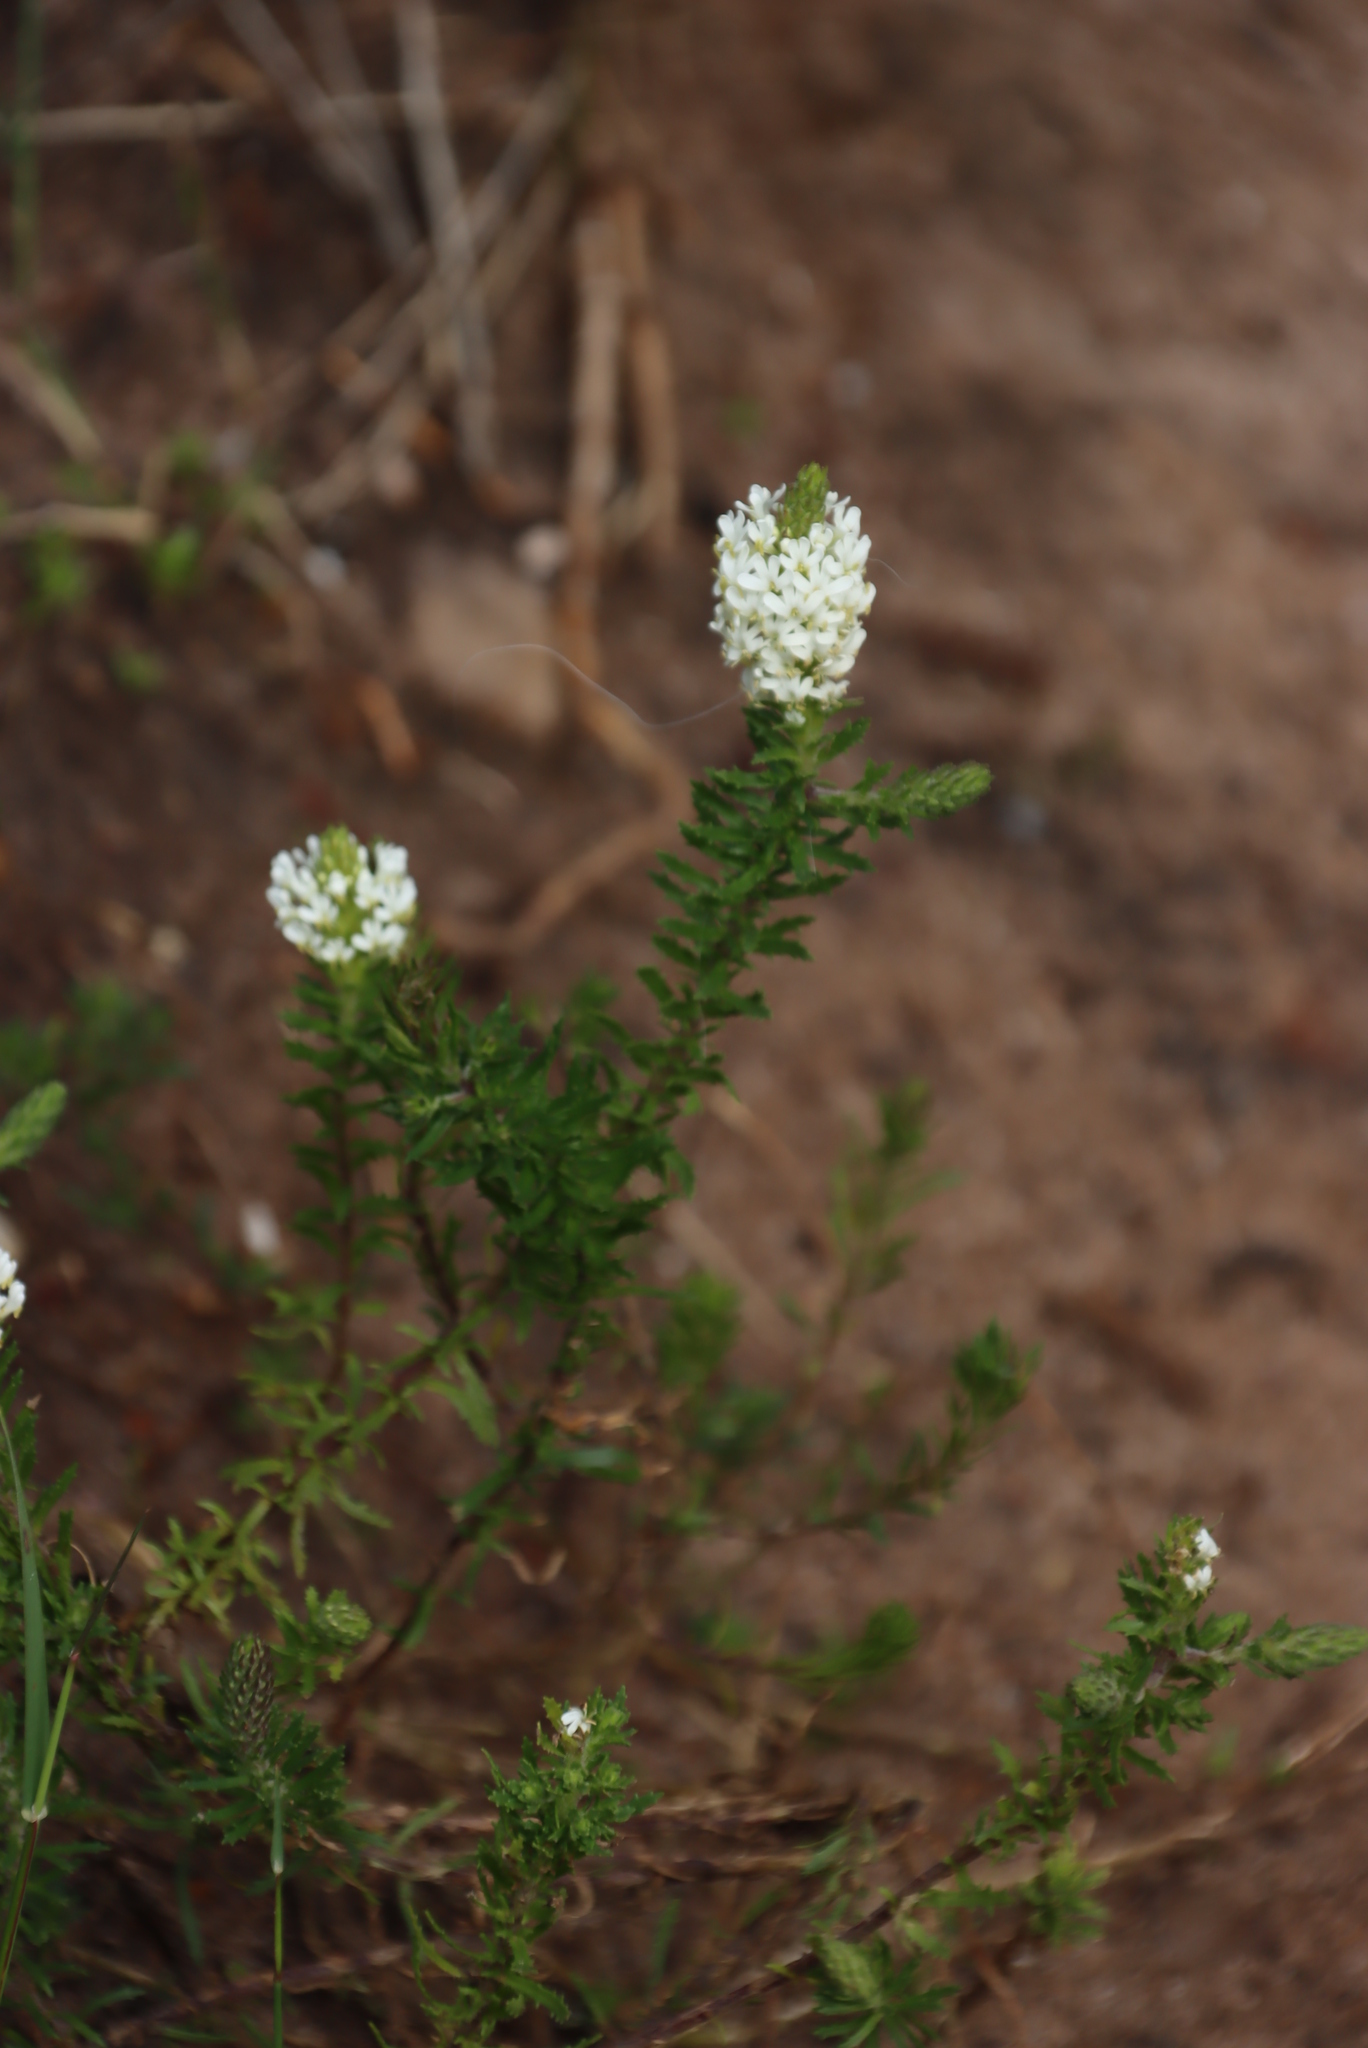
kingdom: Plantae
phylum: Tracheophyta
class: Magnoliopsida
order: Lamiales
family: Scrophulariaceae
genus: Dischisma
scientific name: Dischisma ciliatum
